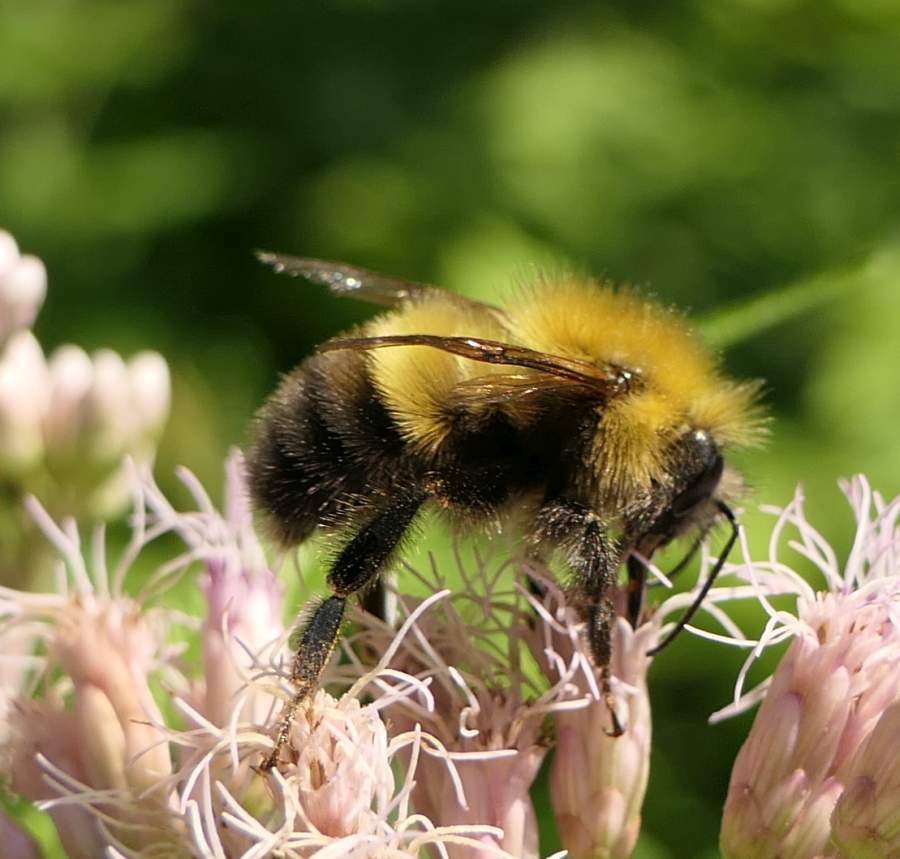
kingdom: Animalia
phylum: Arthropoda
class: Insecta
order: Hymenoptera
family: Apidae
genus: Bombus
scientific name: Bombus perplexus
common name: Confusing bumble bee
